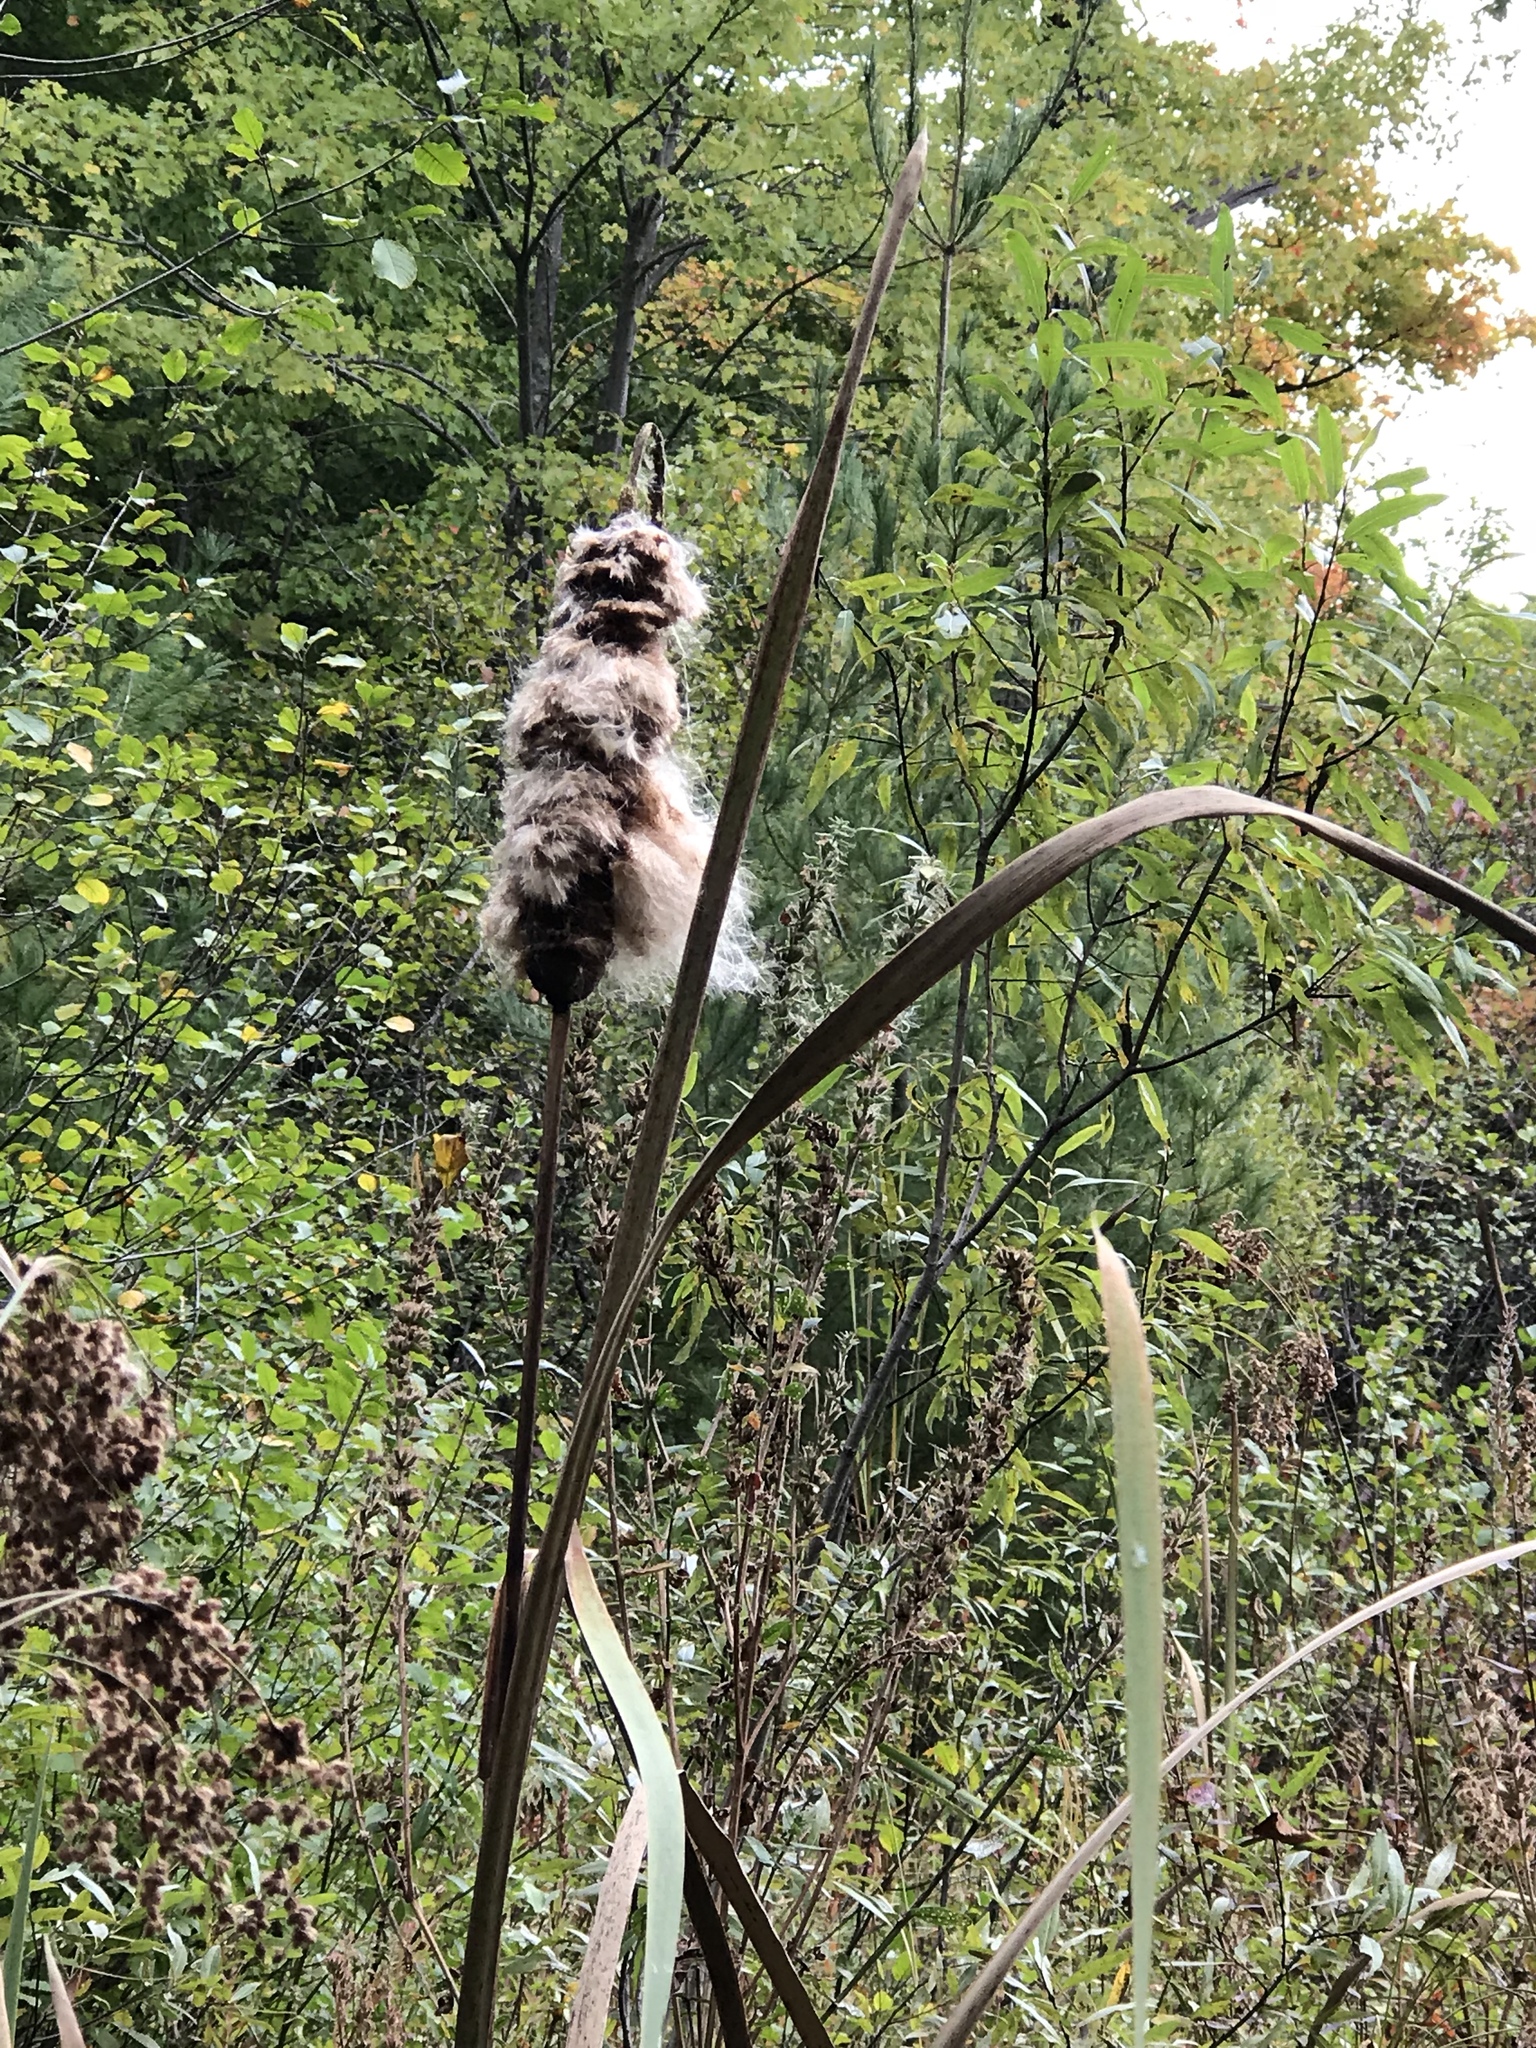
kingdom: Plantae
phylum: Tracheophyta
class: Liliopsida
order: Poales
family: Typhaceae
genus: Typha
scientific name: Typha latifolia
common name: Broadleaf cattail
